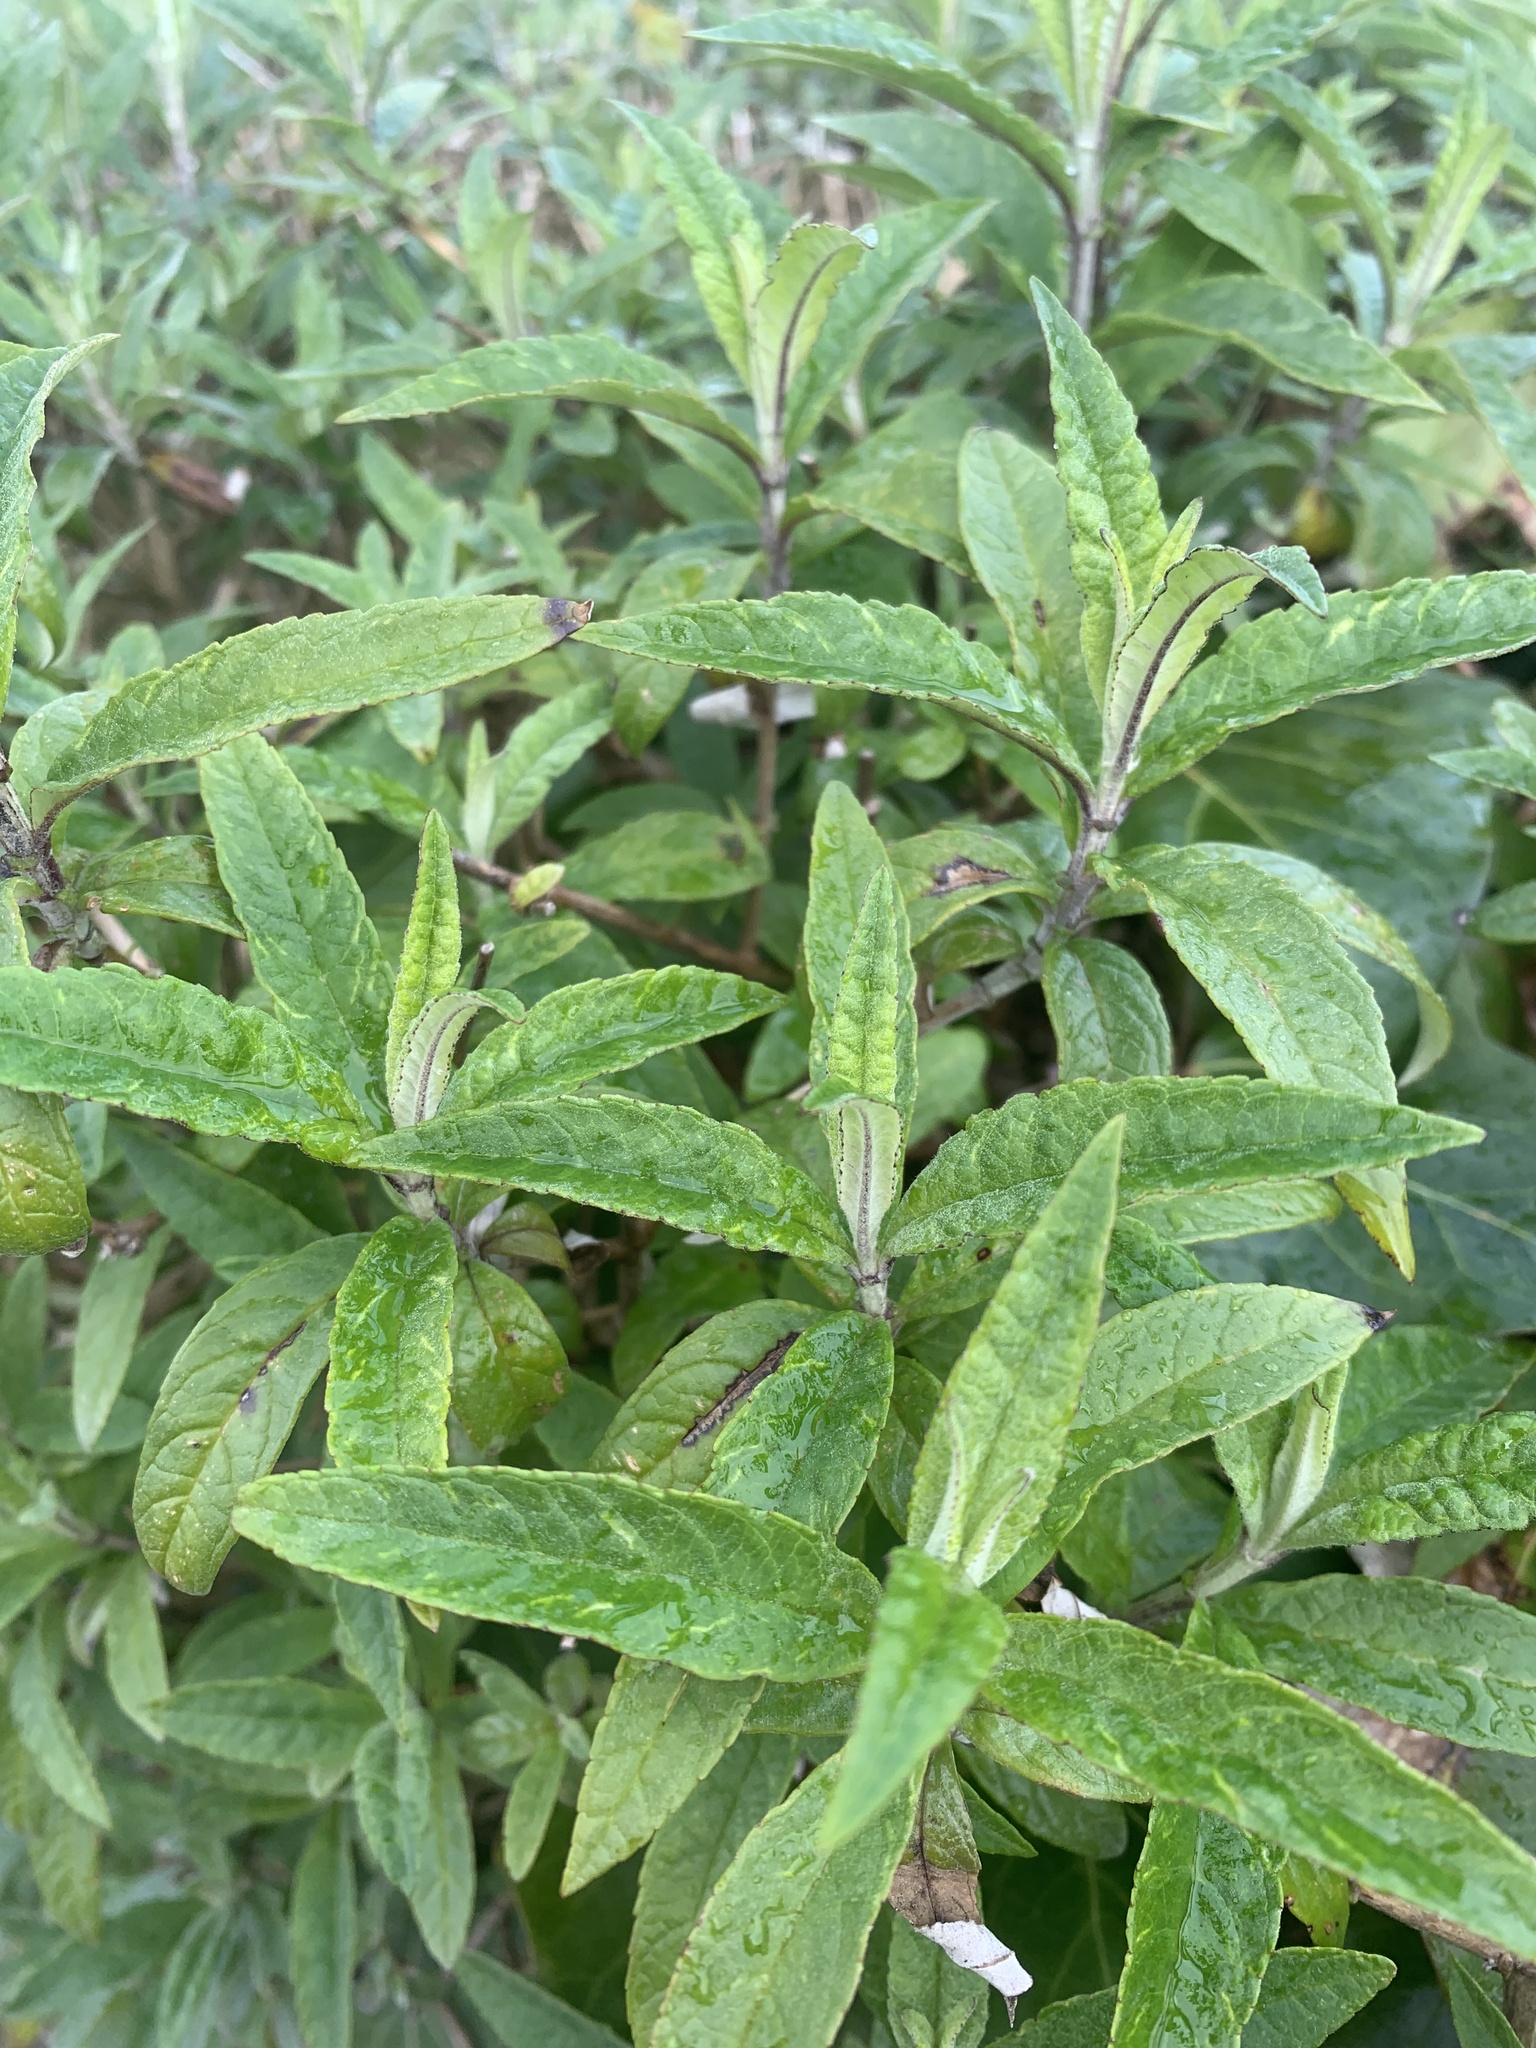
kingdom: Plantae
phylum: Tracheophyta
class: Magnoliopsida
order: Lamiales
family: Scrophulariaceae
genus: Buddleja
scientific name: Buddleja davidii
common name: Butterfly-bush
